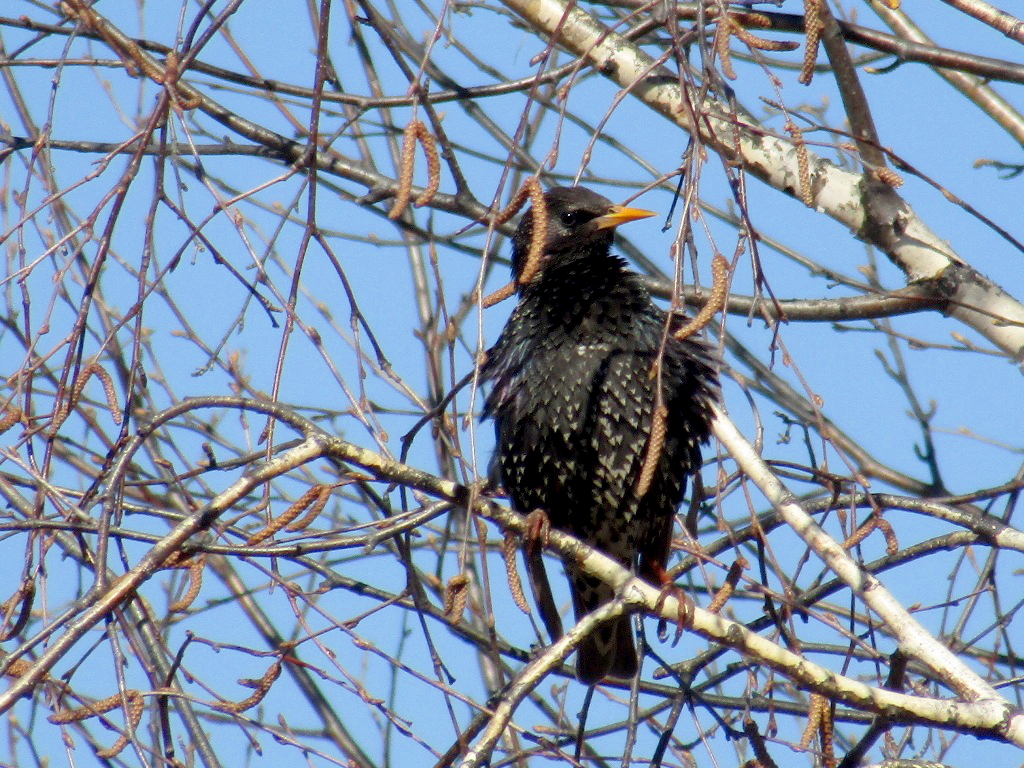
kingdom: Animalia
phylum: Chordata
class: Aves
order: Passeriformes
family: Sturnidae
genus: Sturnus
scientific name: Sturnus vulgaris
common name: Common starling
